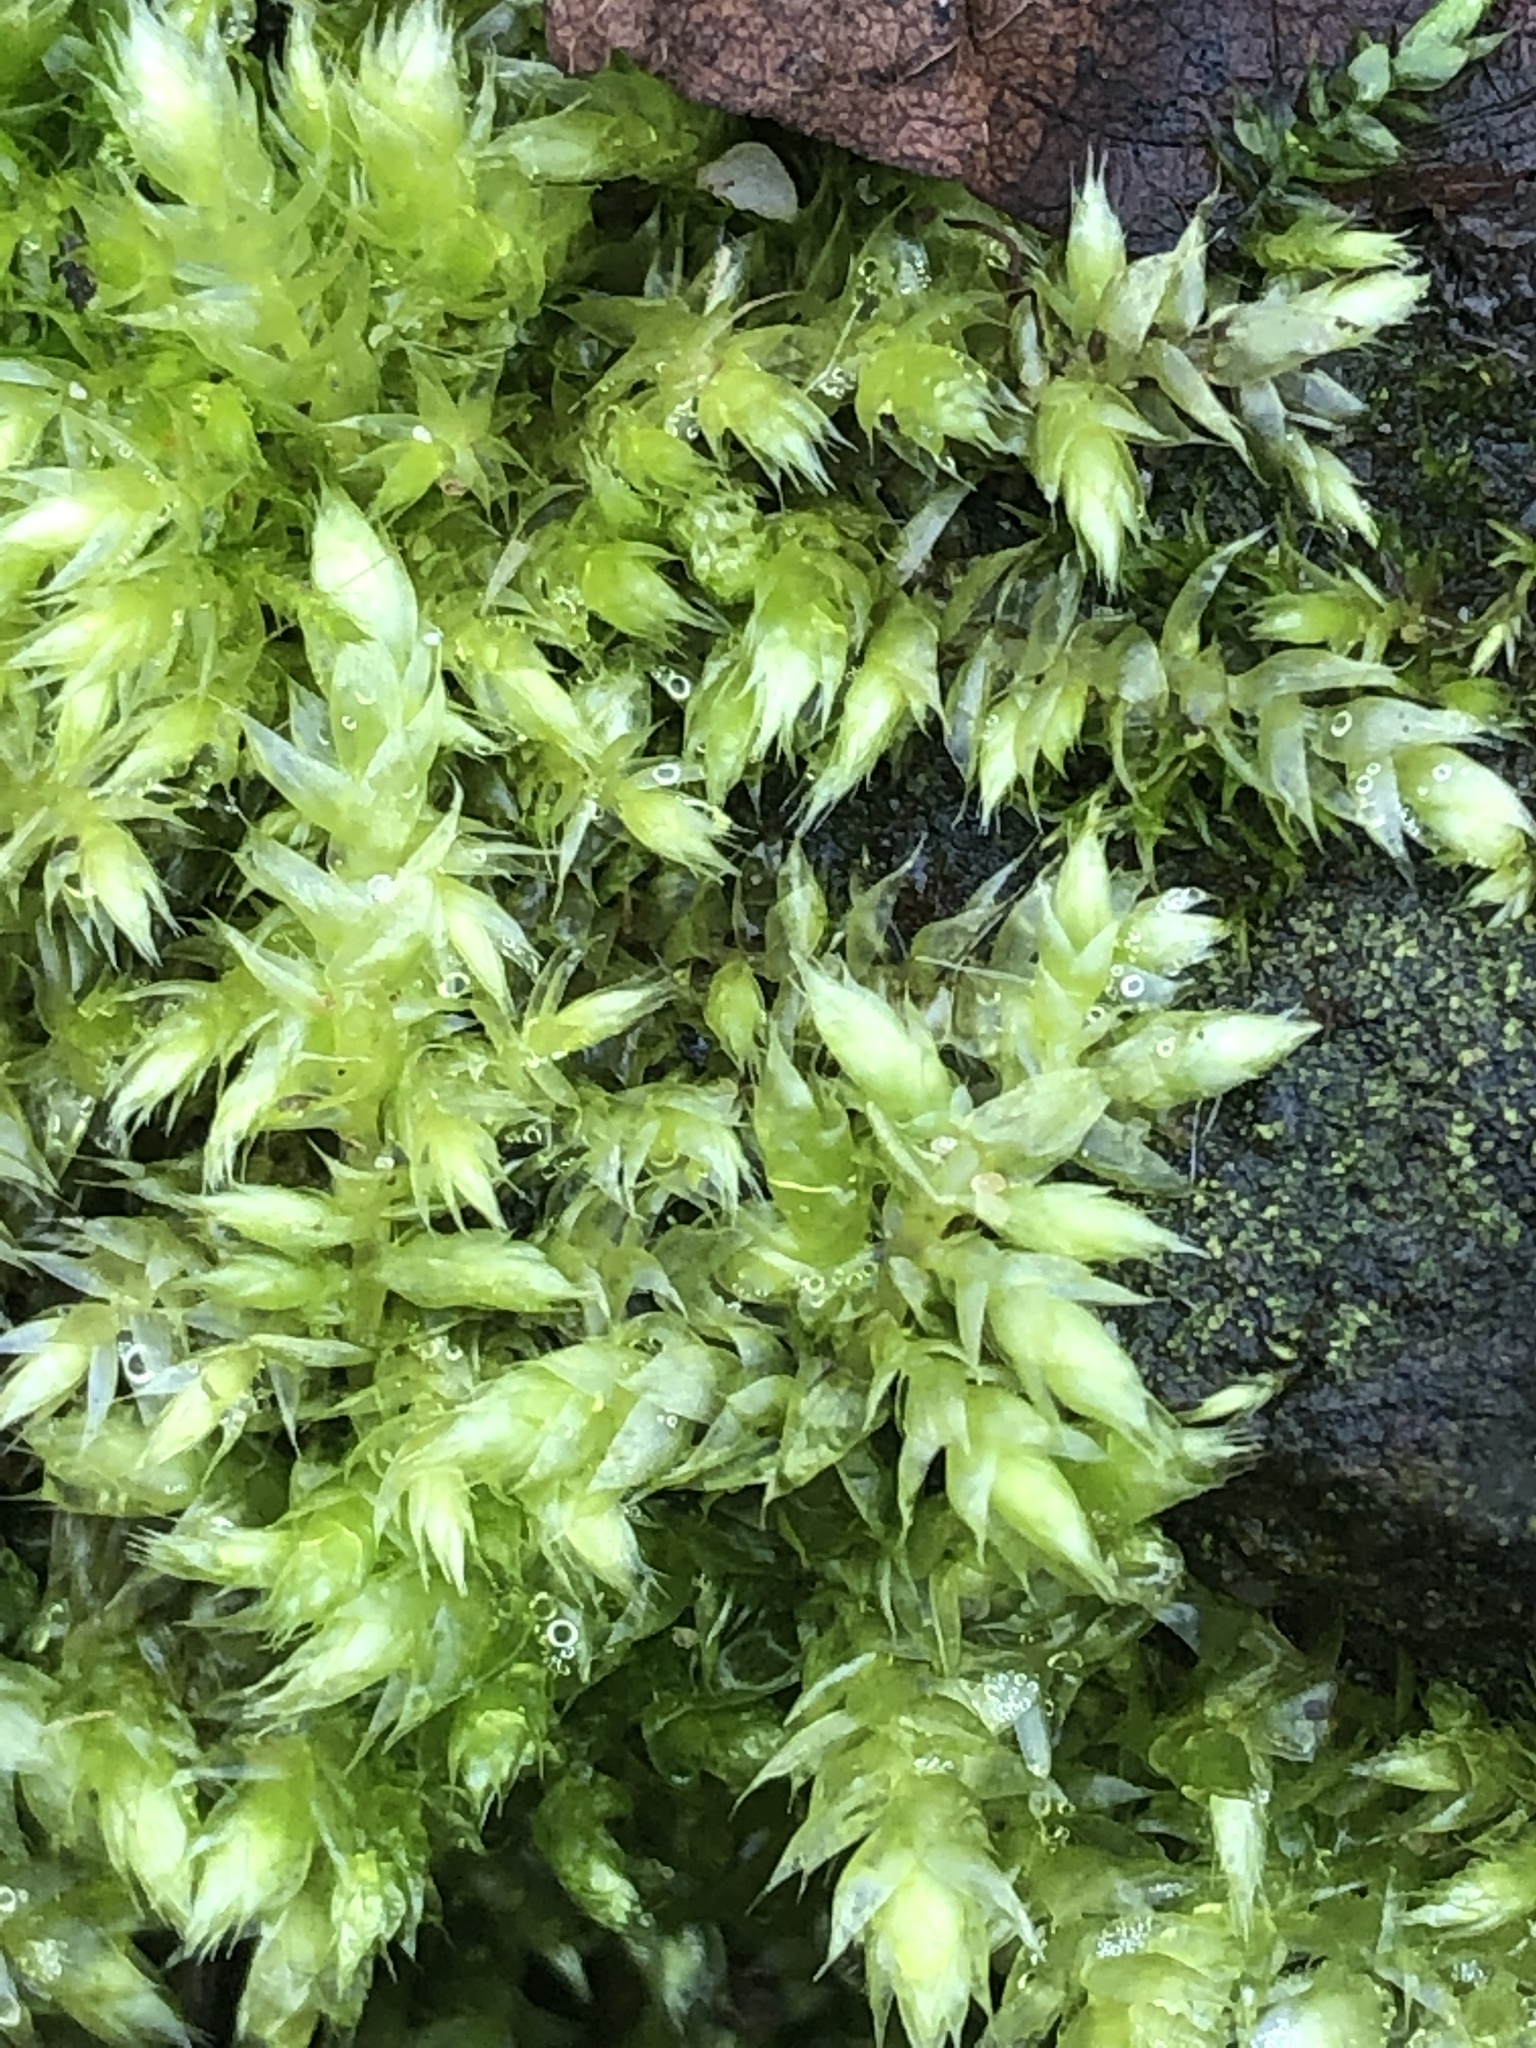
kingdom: Plantae
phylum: Bryophyta
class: Bryopsida
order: Hypnales
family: Brachytheciaceae
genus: Brachythecium
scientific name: Brachythecium salebrosum
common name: Smooth-stalk feather-moss
